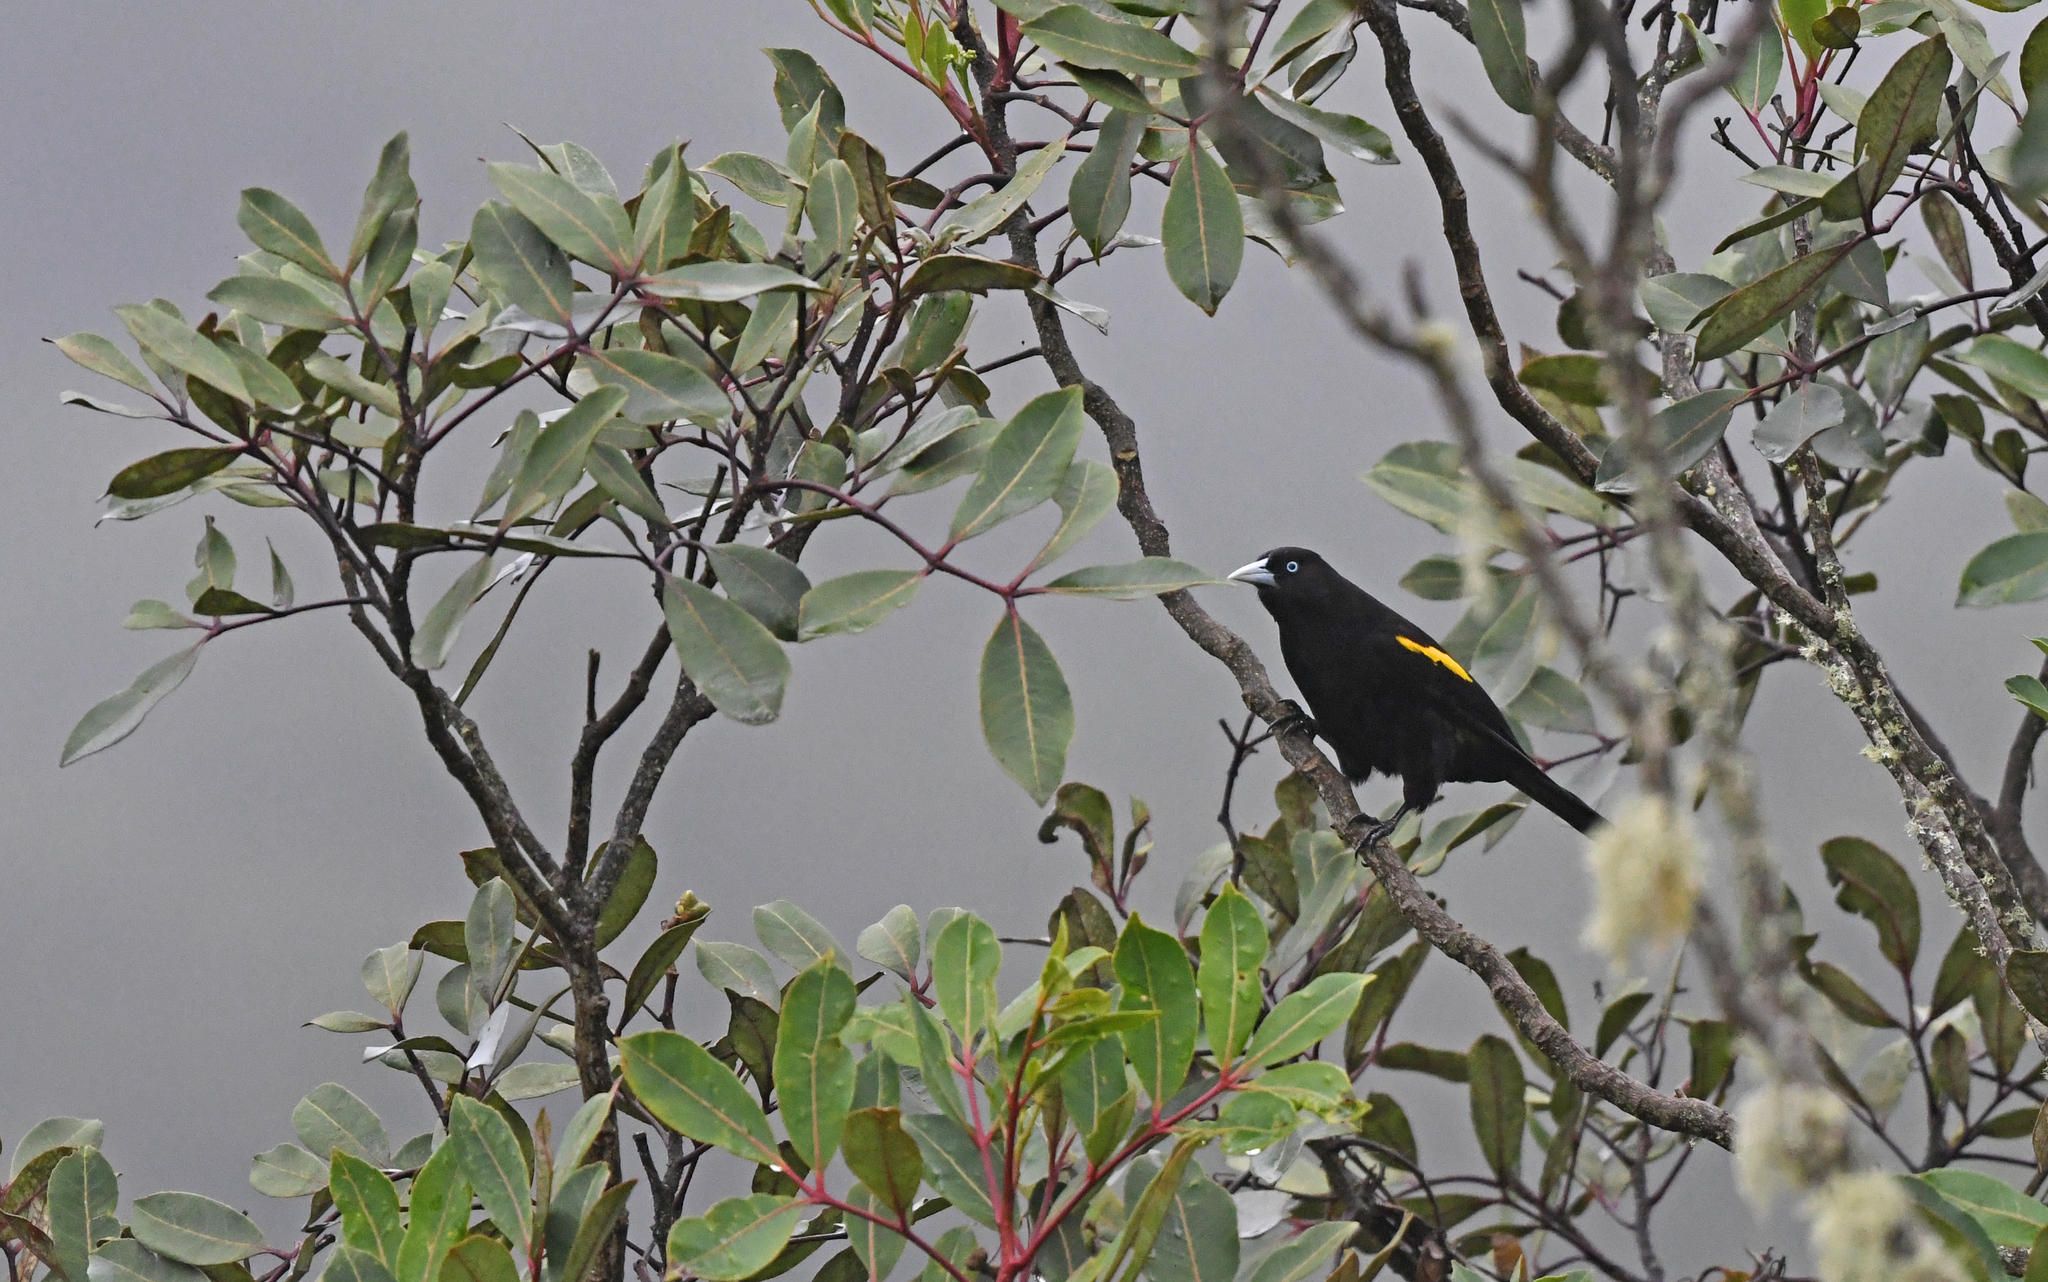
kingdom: Animalia
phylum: Chordata
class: Aves
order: Passeriformes
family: Icteridae
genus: Cacicus
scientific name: Cacicus chrysonotus
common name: Southern mountain cacique
